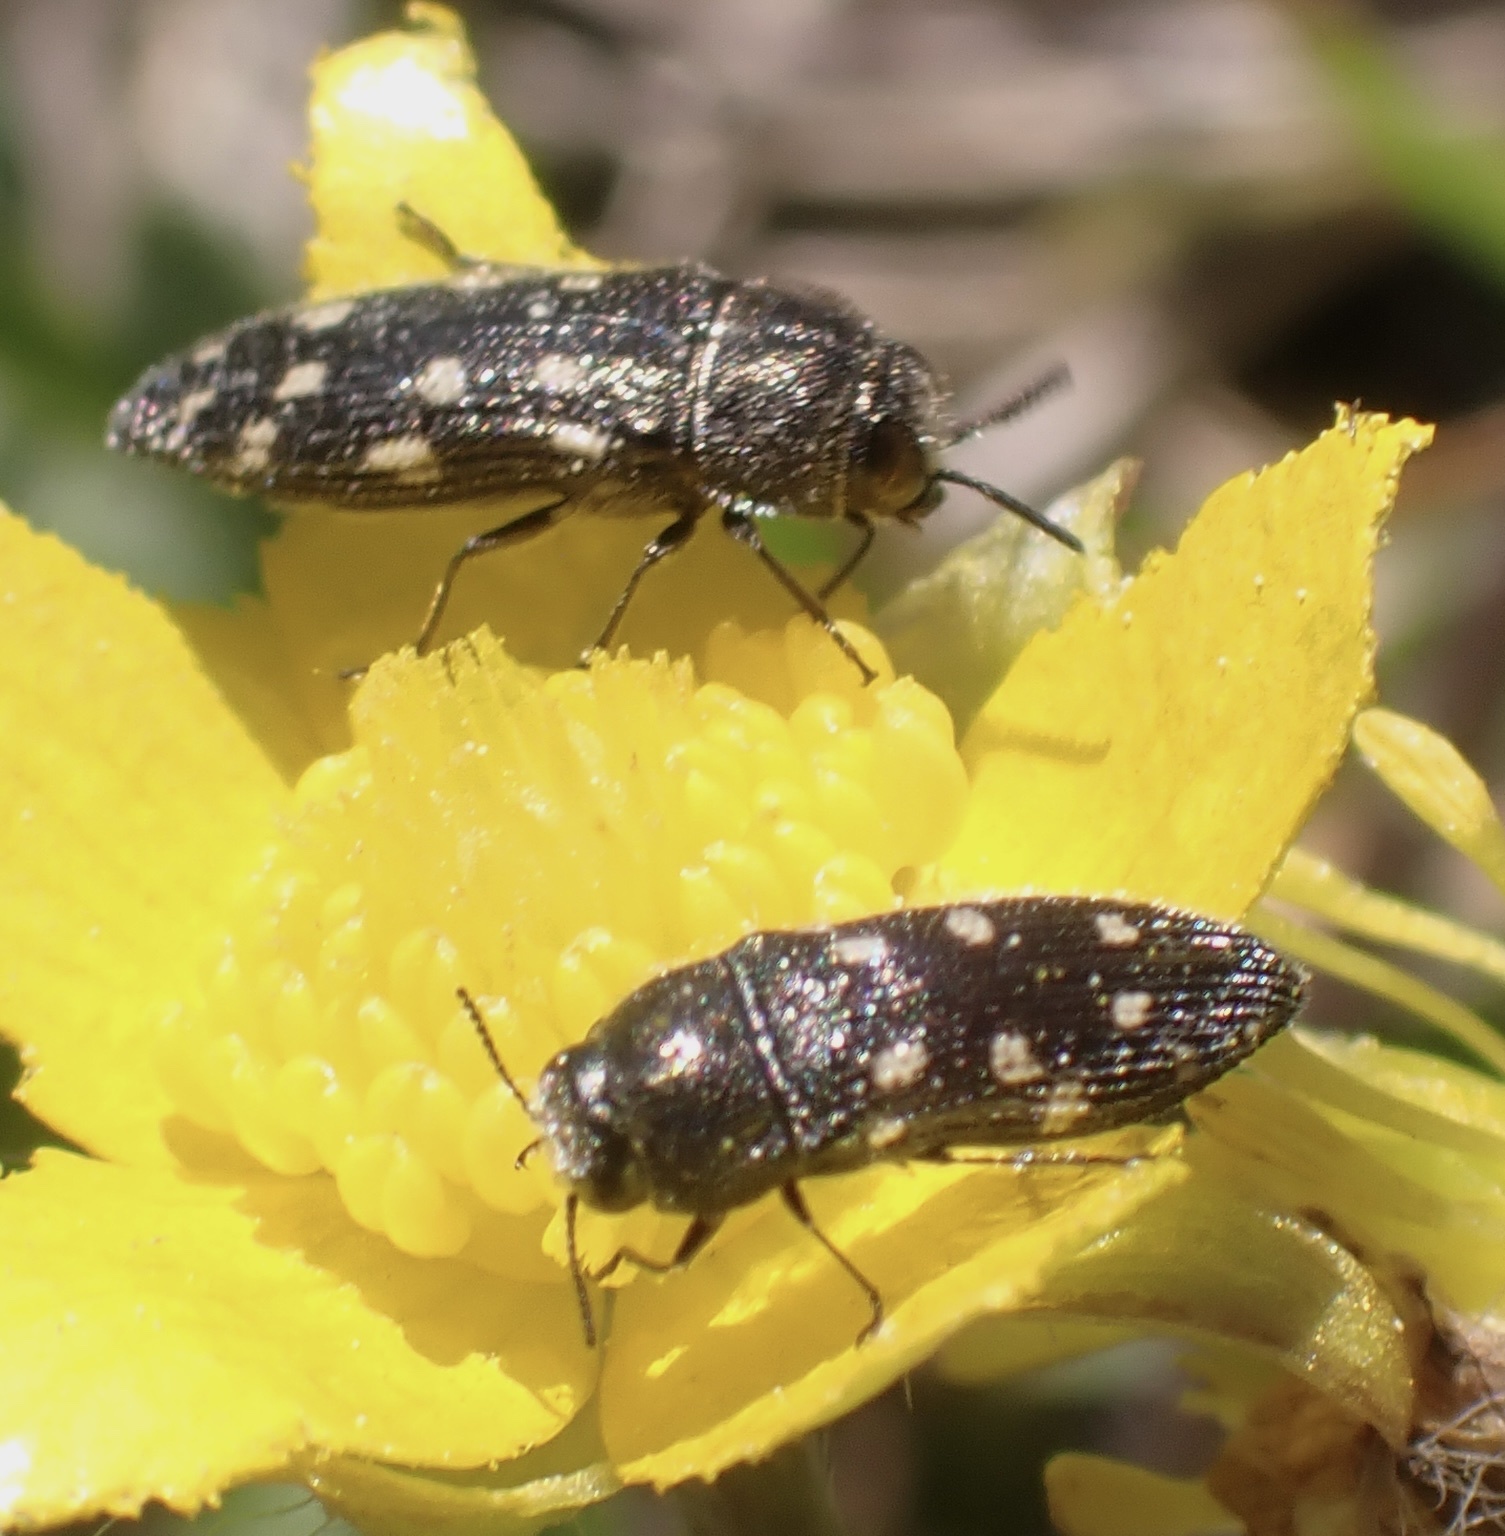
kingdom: Animalia
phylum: Arthropoda
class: Insecta
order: Coleoptera
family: Buprestidae
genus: Acmaeodera
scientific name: Acmaeodera tubulus
